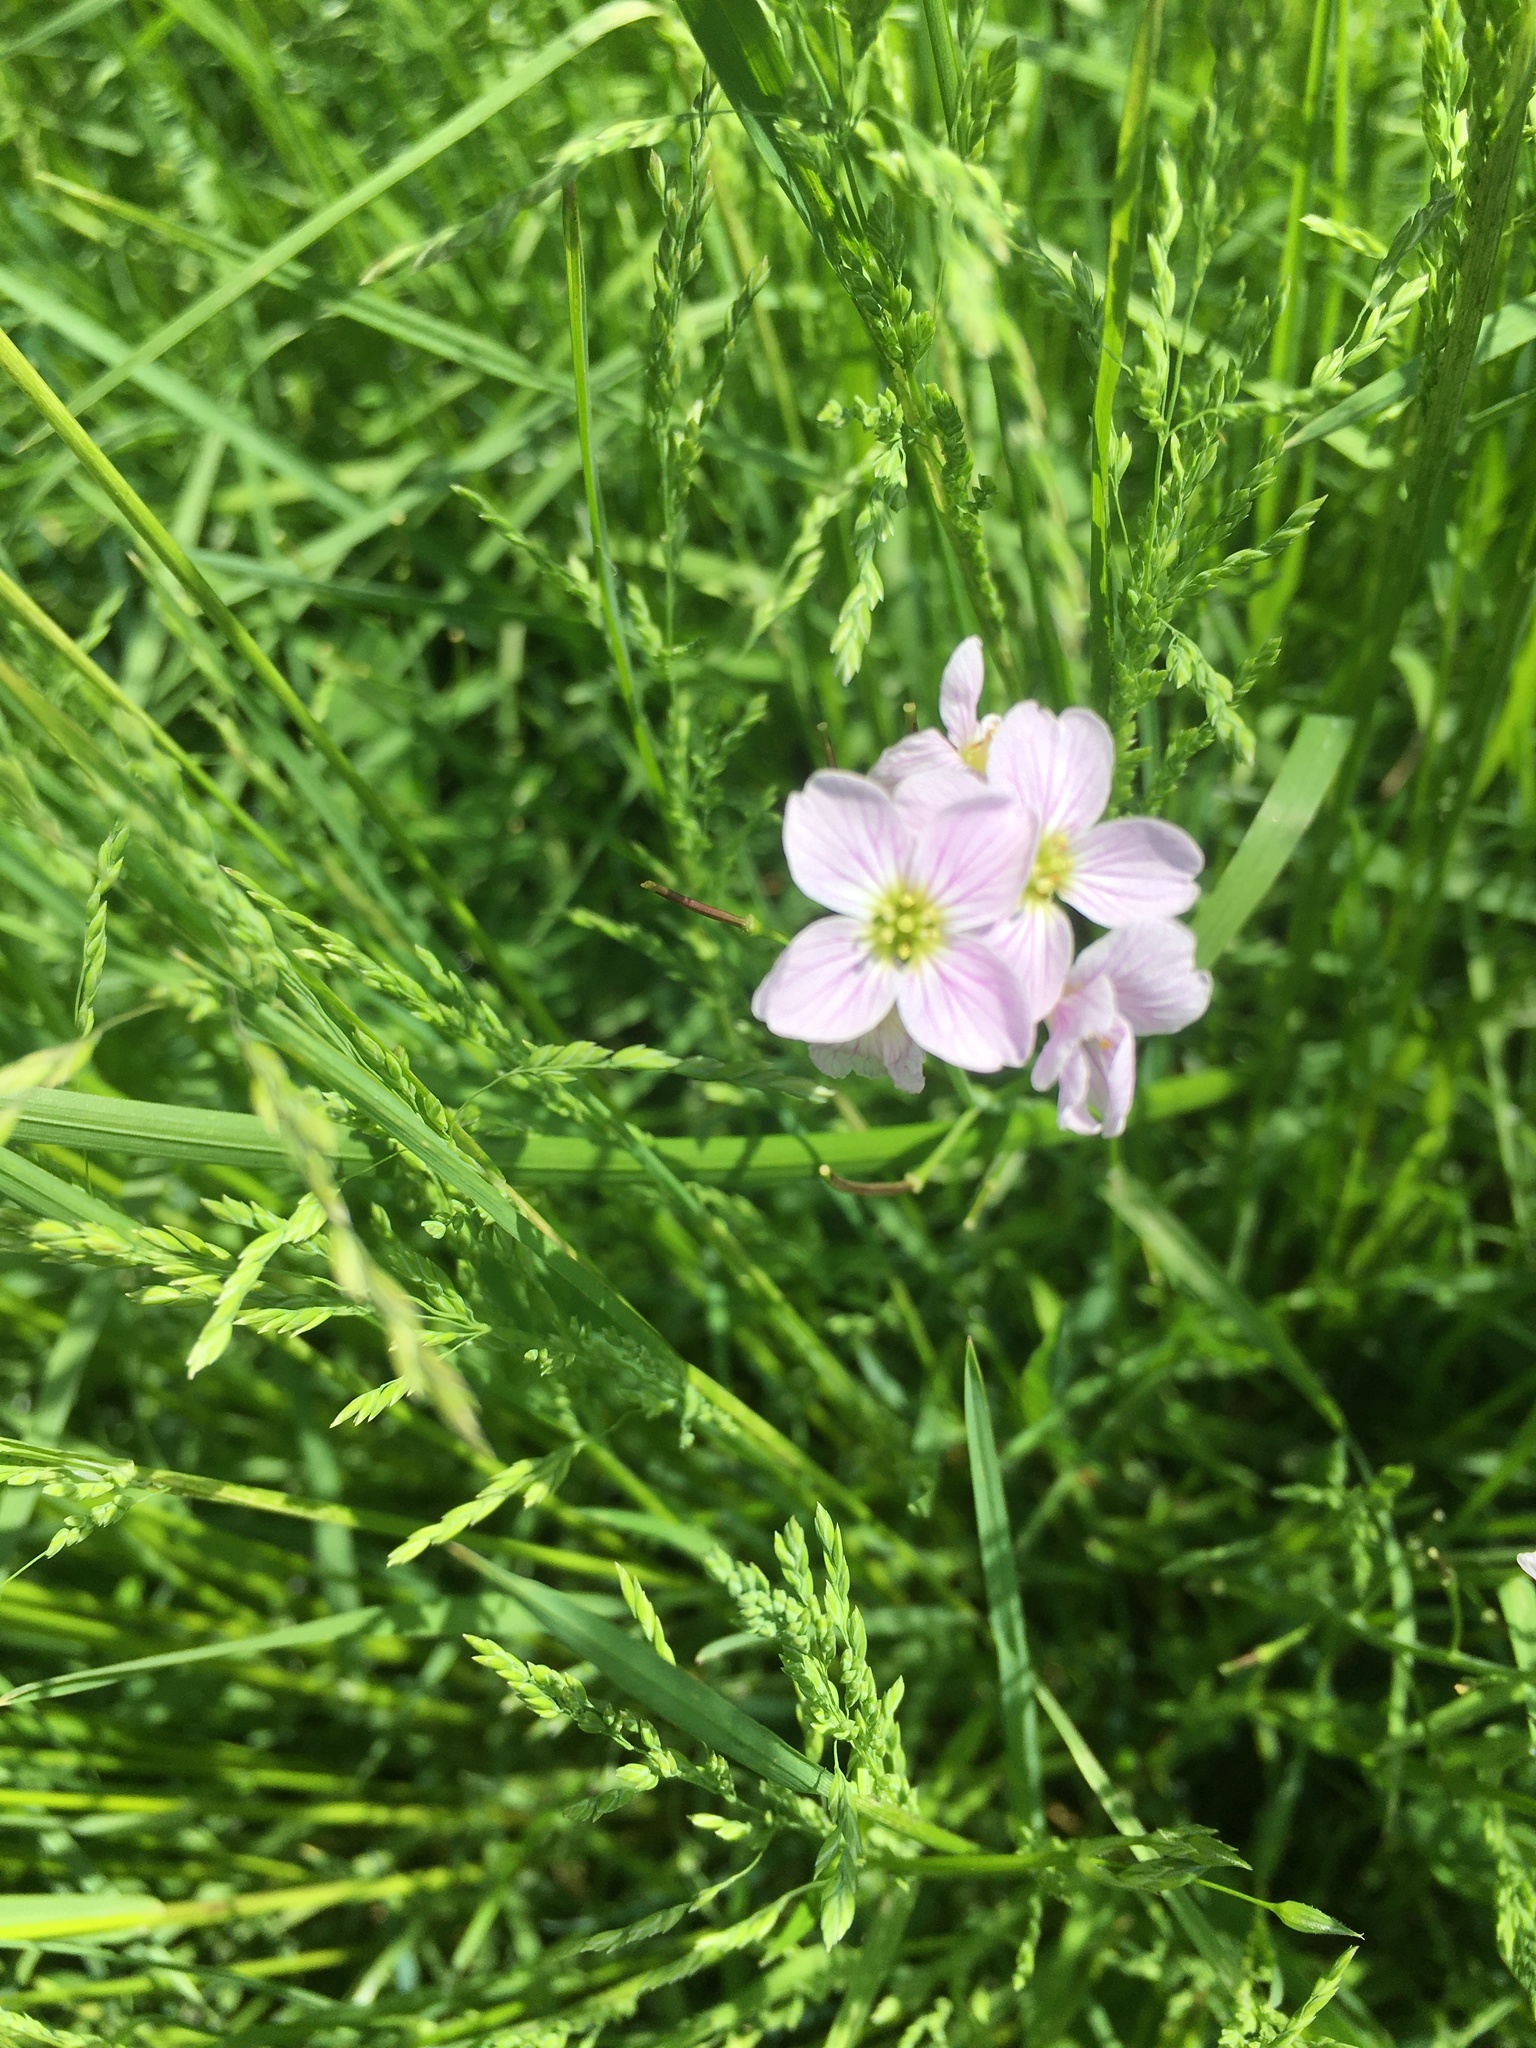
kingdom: Plantae
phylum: Tracheophyta
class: Magnoliopsida
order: Brassicales
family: Brassicaceae
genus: Cardamine
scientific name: Cardamine pratensis
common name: Cuckoo flower
